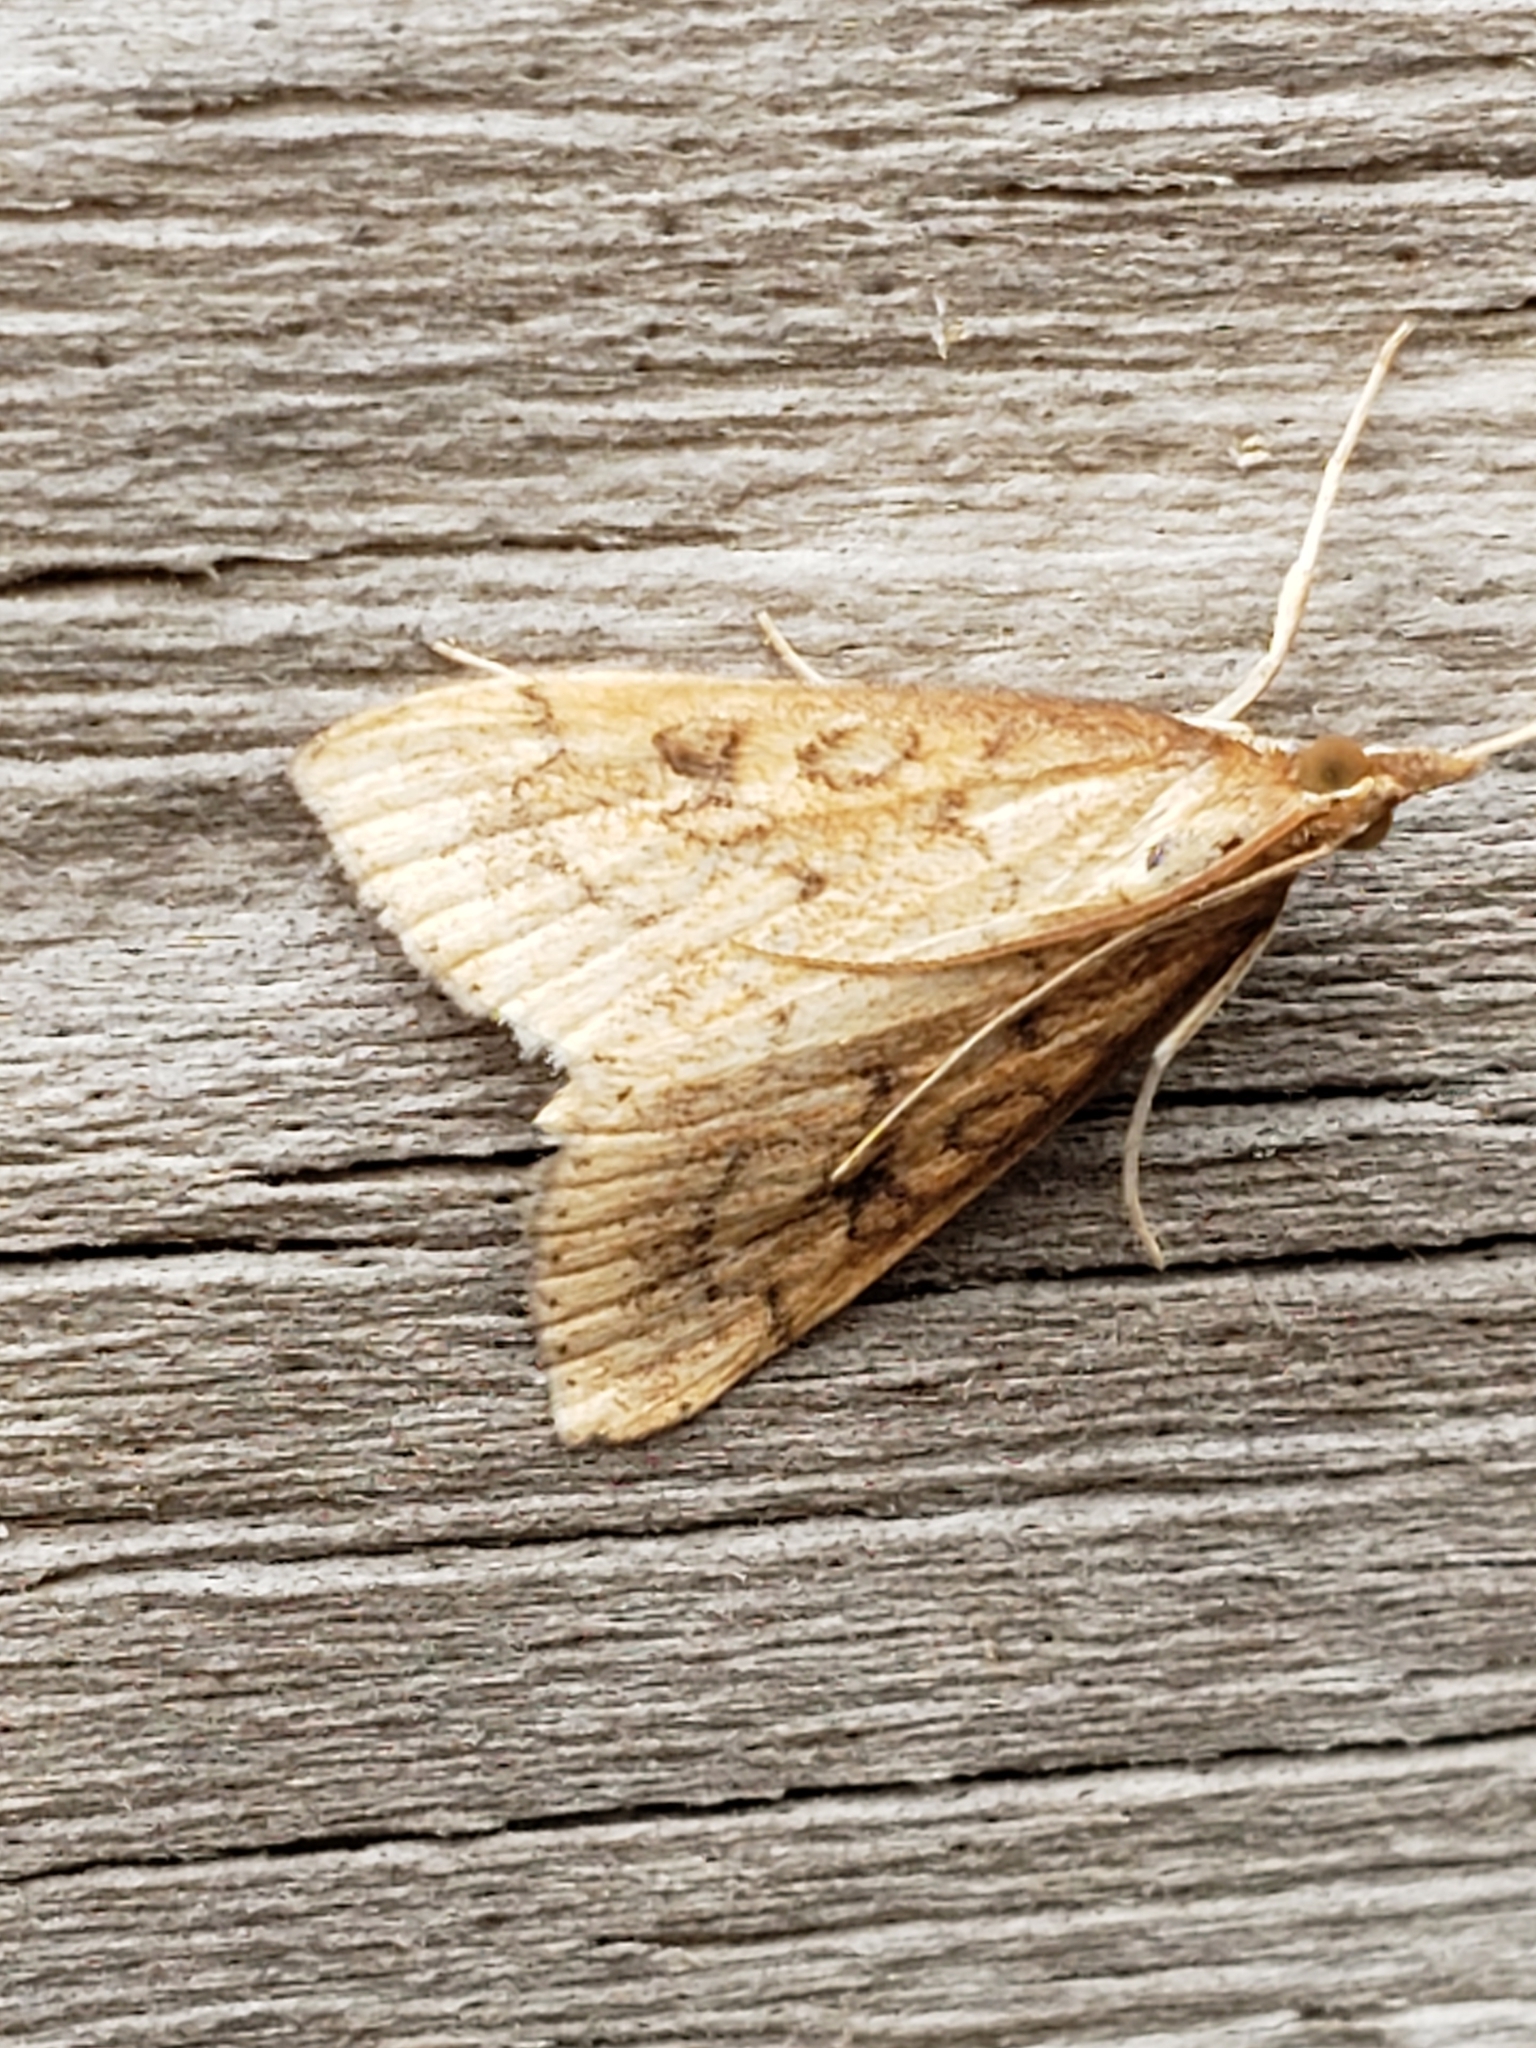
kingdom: Animalia
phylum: Arthropoda
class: Insecta
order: Lepidoptera
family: Crambidae
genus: Udea
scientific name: Udea rubigalis
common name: Celery leaftier moth
